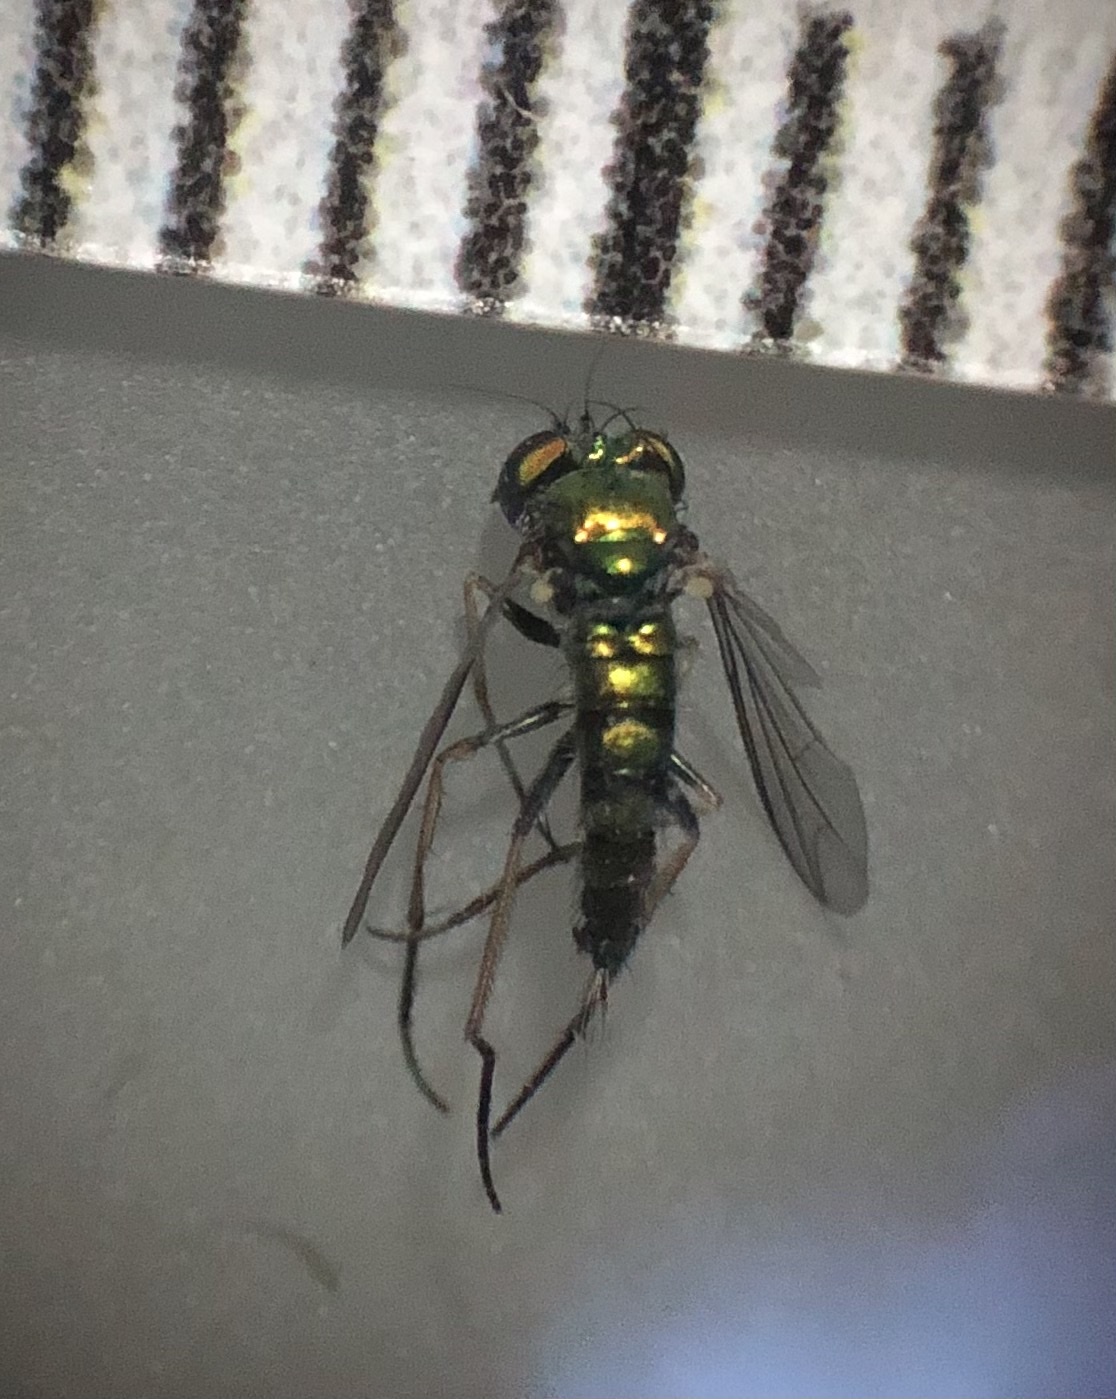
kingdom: Animalia
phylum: Arthropoda
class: Insecta
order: Diptera
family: Dolichopodidae
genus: Condylostylus
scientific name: Condylostylus caudatus
